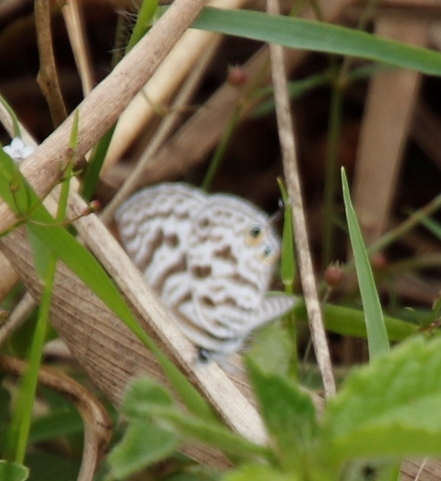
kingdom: Animalia
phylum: Arthropoda
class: Insecta
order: Lepidoptera
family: Lycaenidae
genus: Leptotes
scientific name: Leptotes
